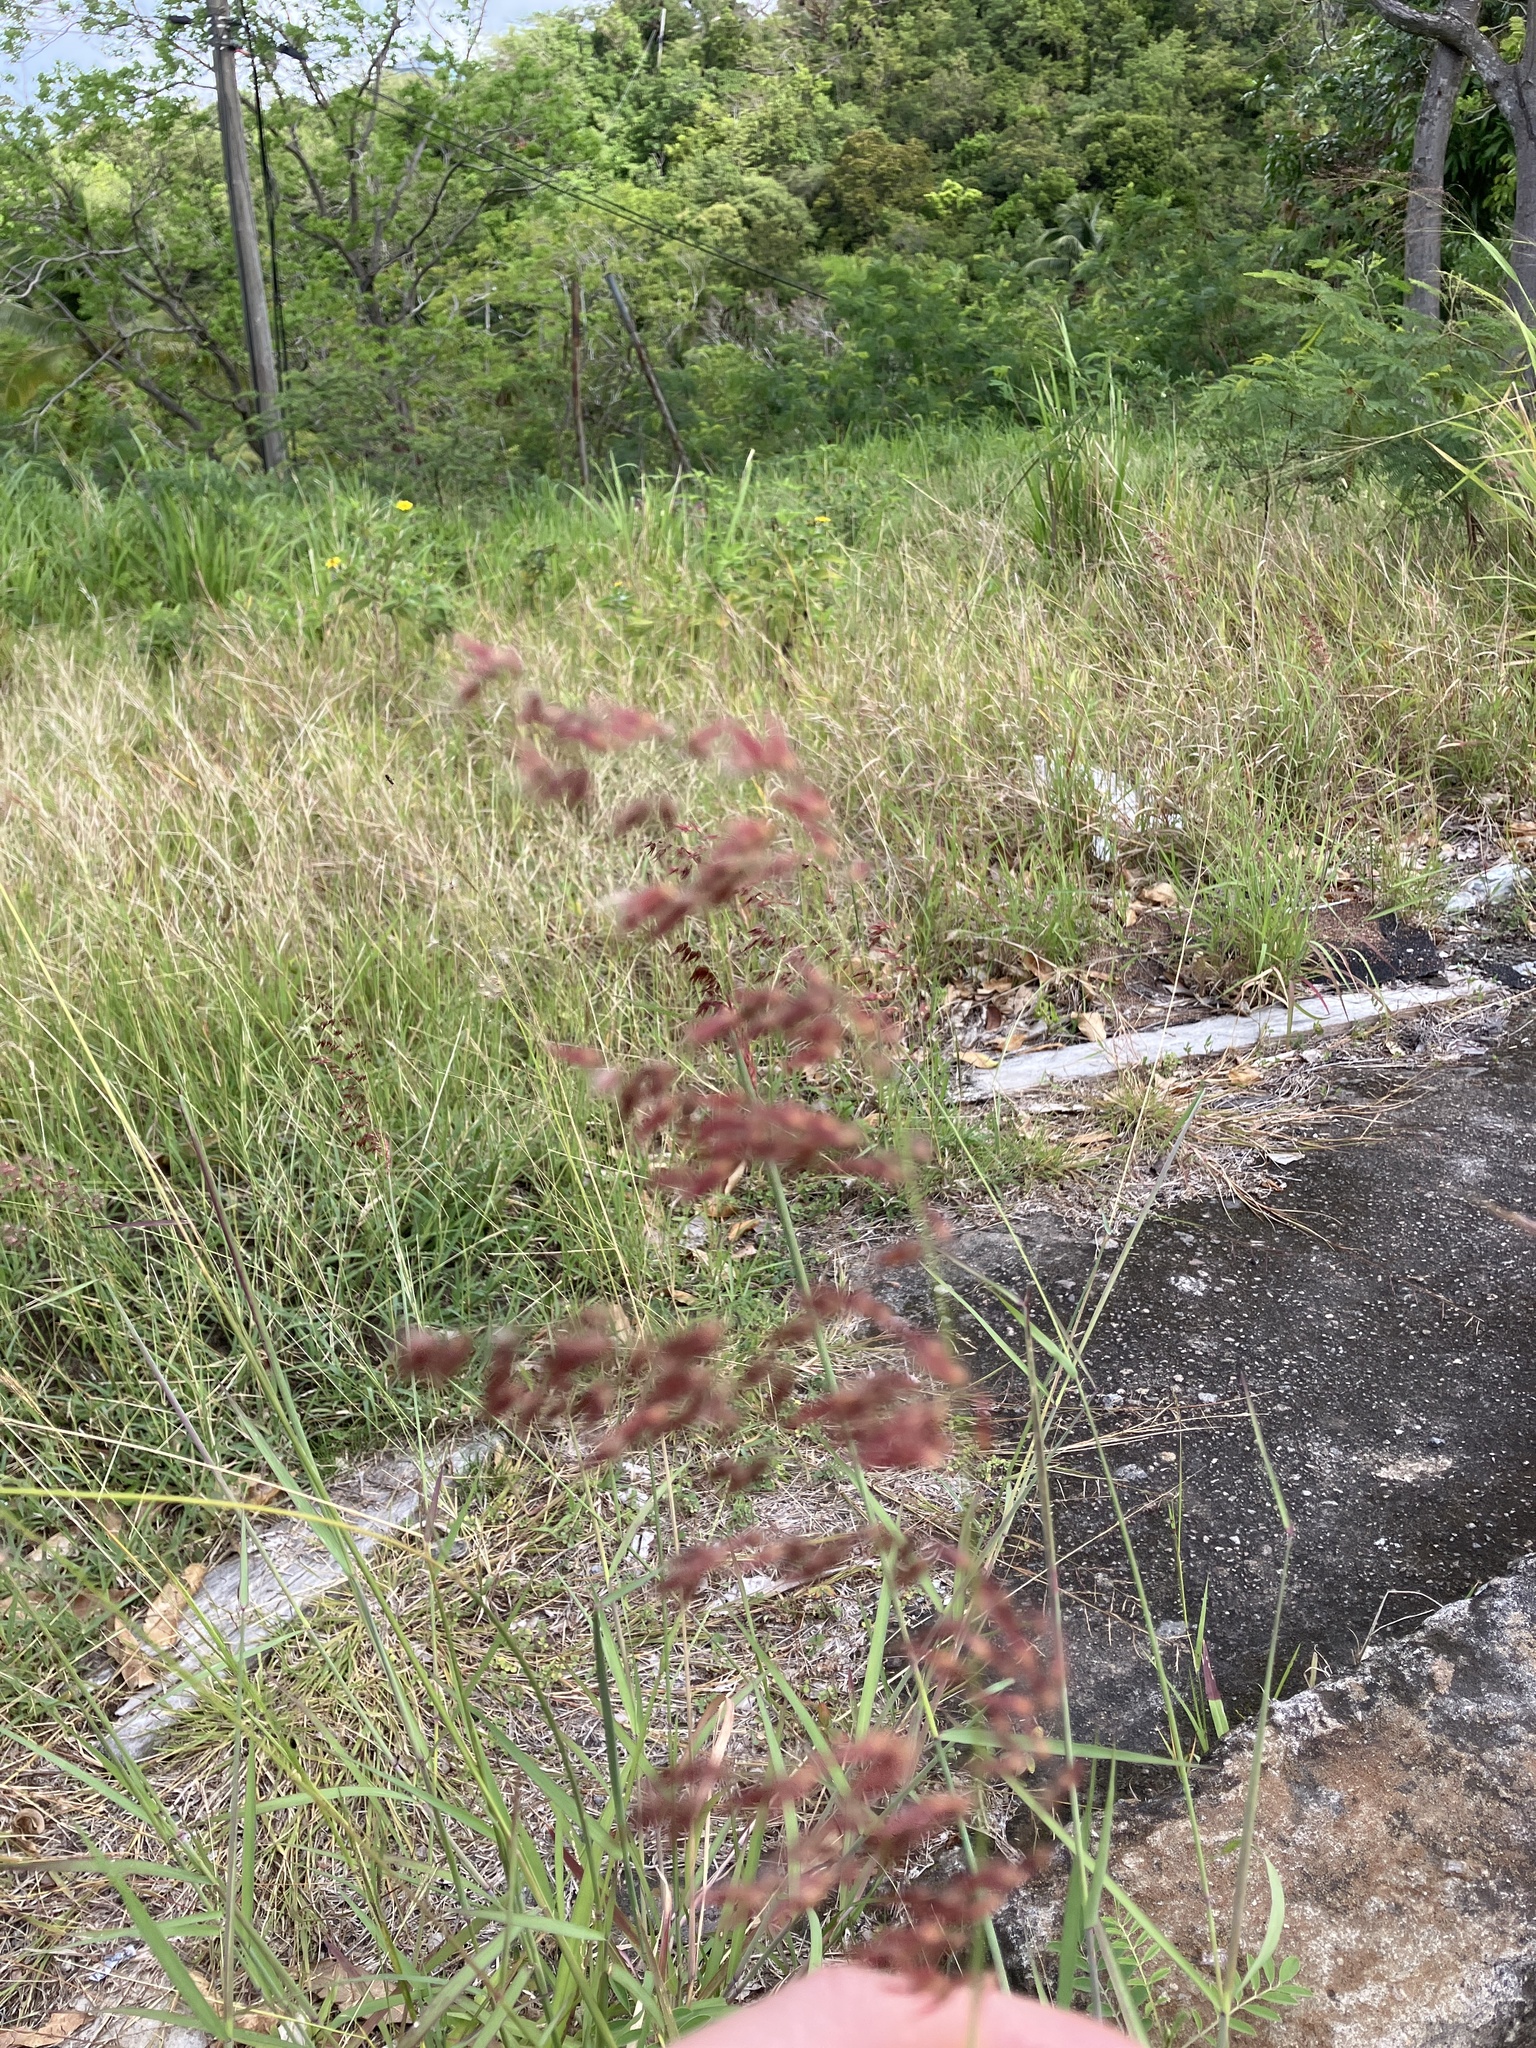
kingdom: Plantae
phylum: Tracheophyta
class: Liliopsida
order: Poales
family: Poaceae
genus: Melinis
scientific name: Melinis repens
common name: Rose natal grass
